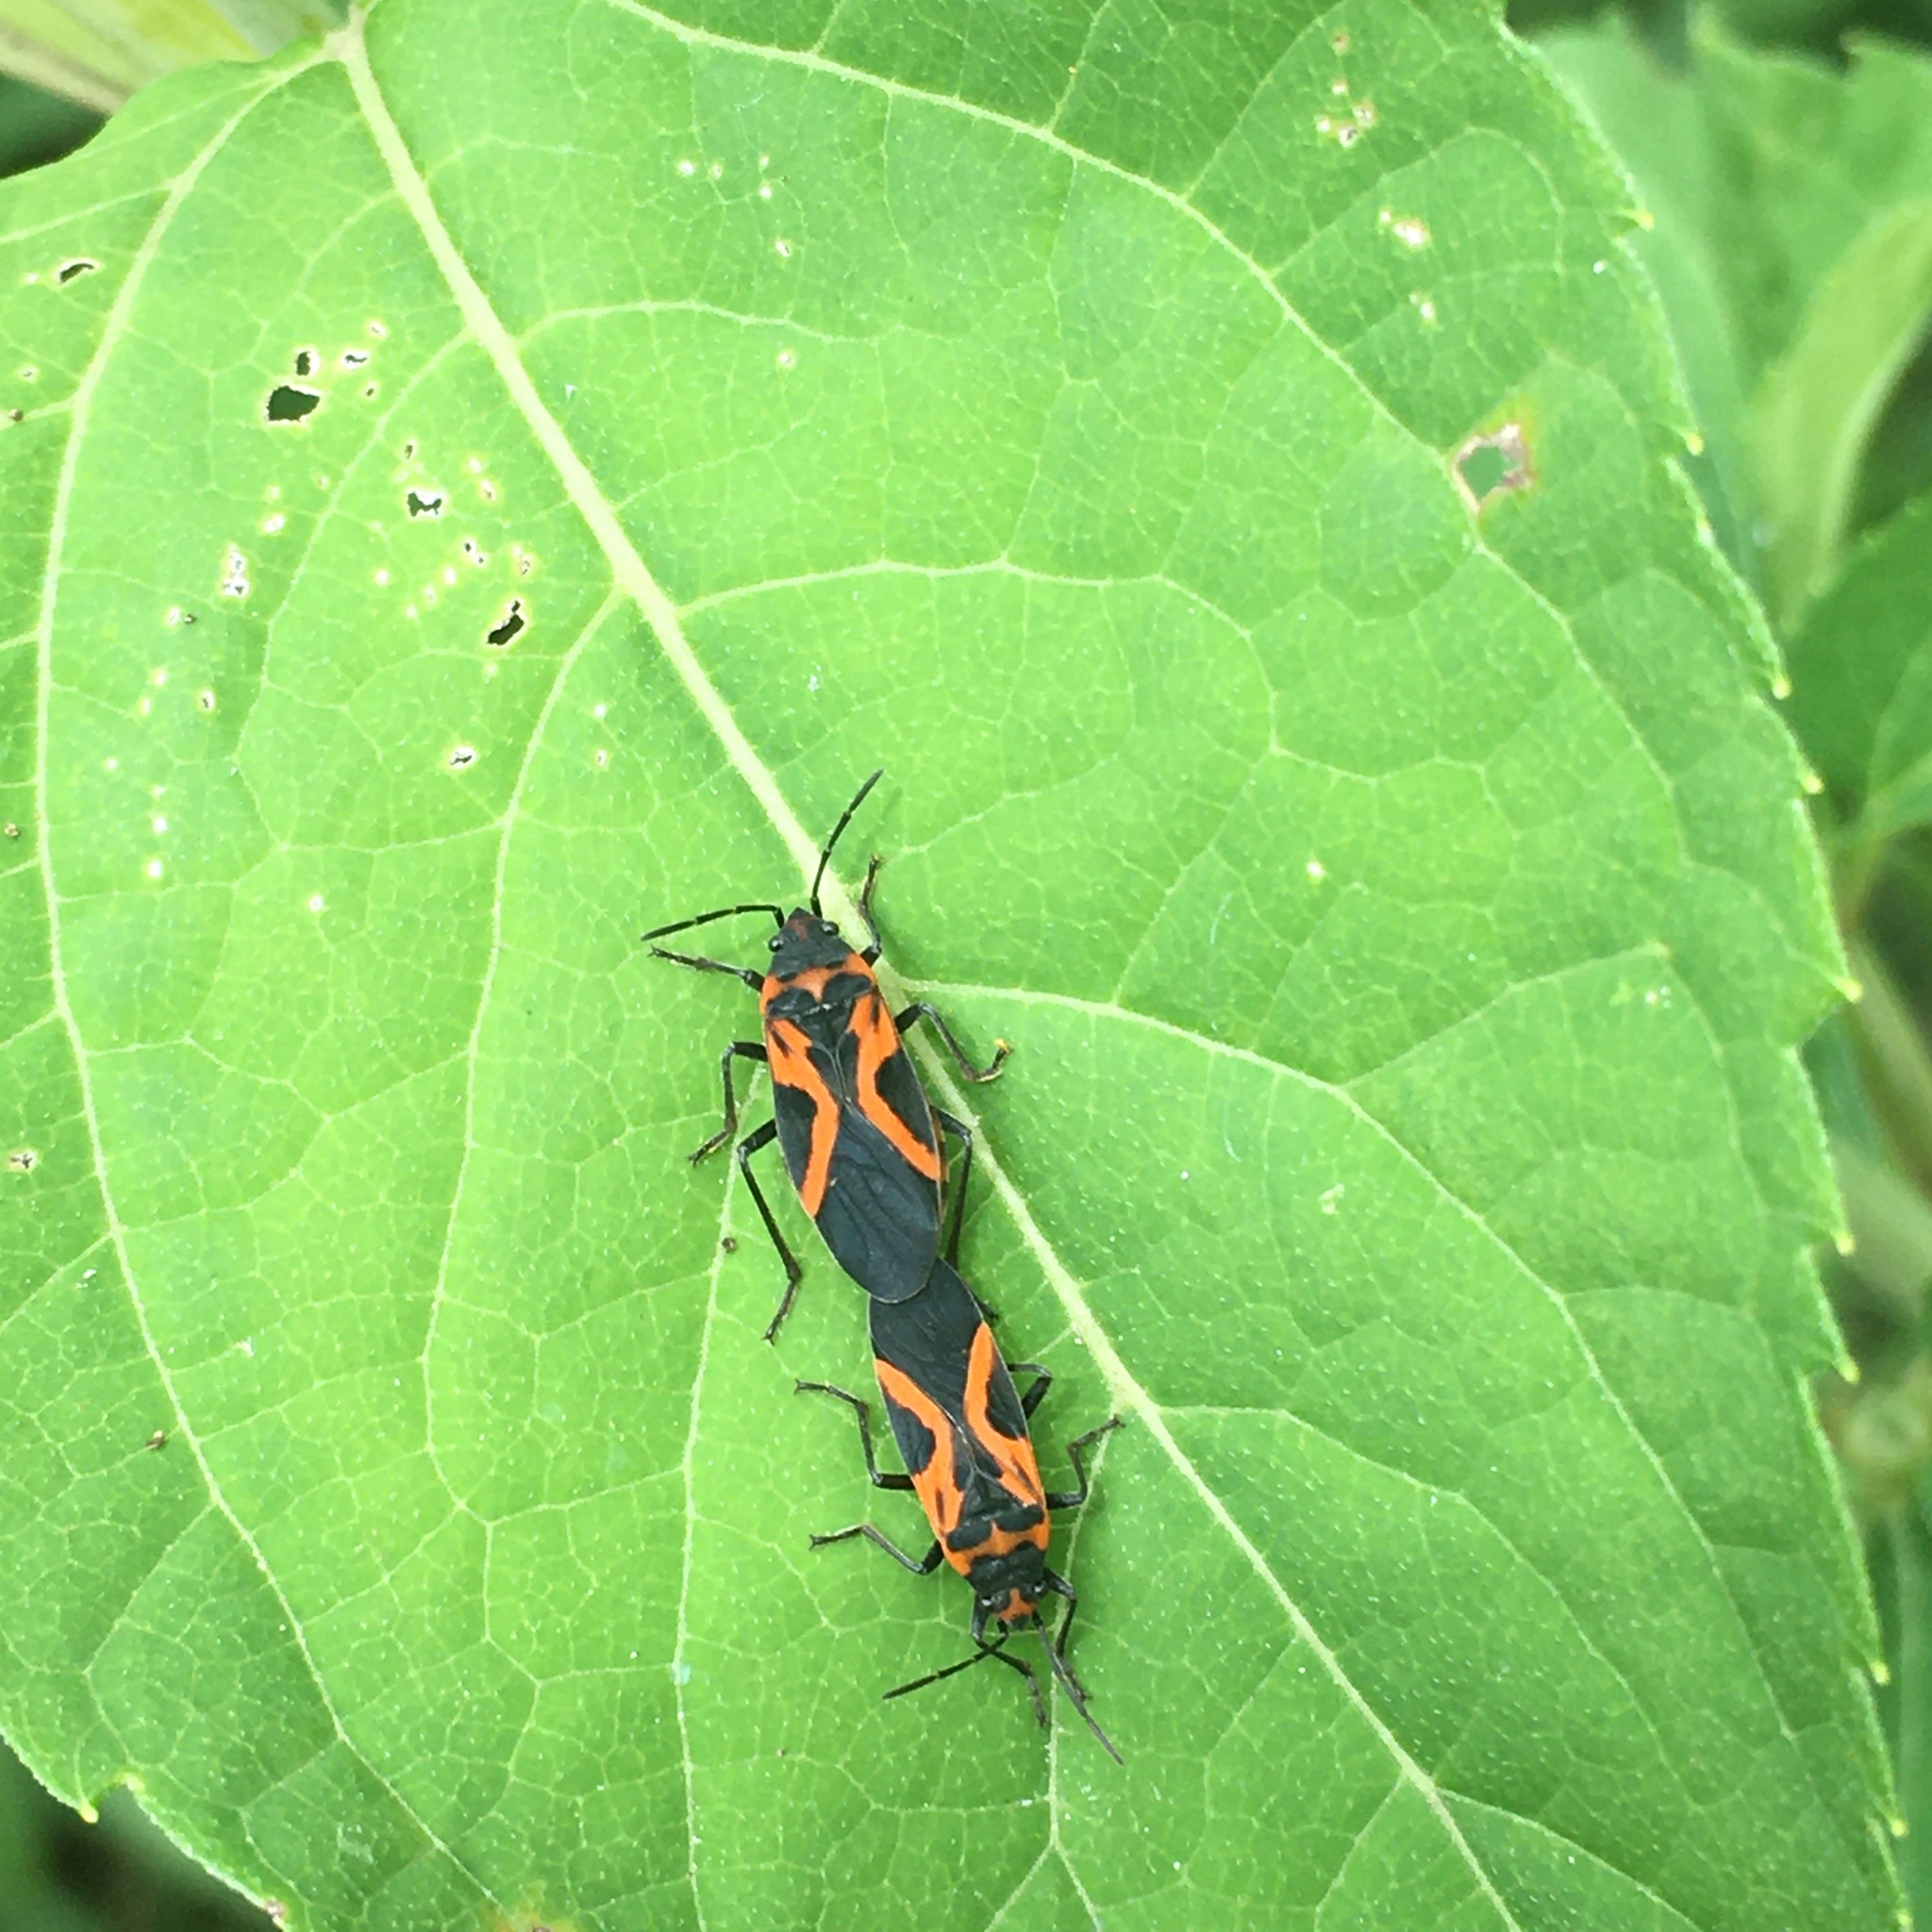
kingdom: Animalia
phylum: Arthropoda
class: Insecta
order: Hemiptera
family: Lygaeidae
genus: Lygaeus
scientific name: Lygaeus turcicus
